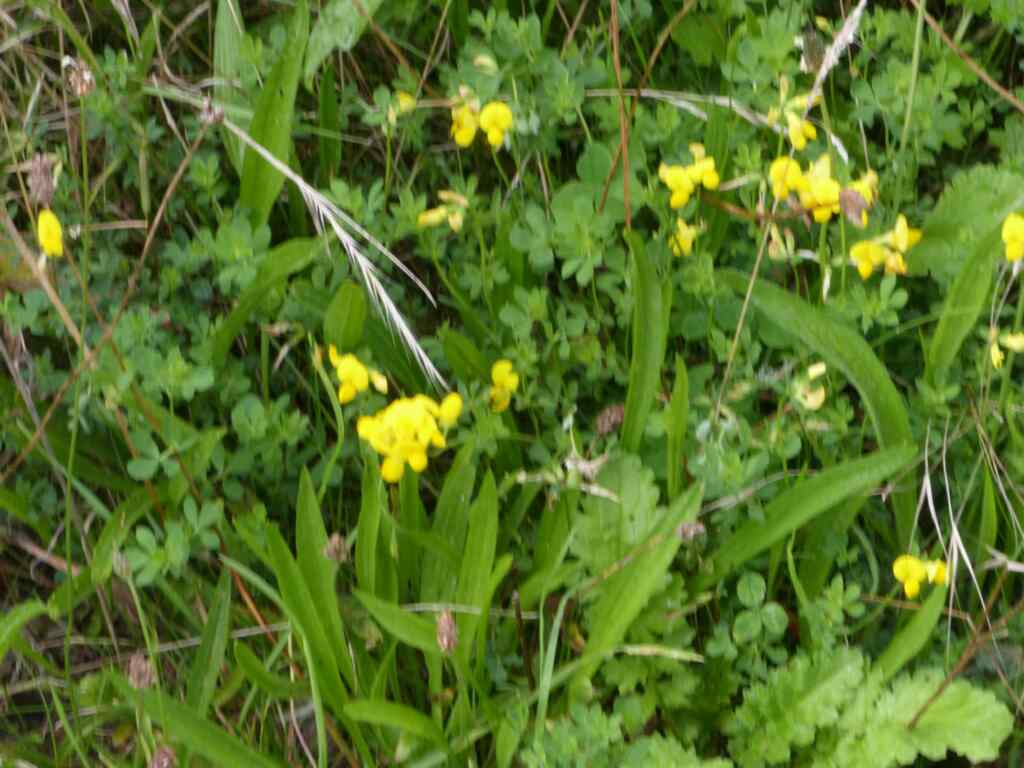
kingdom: Plantae
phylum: Tracheophyta
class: Magnoliopsida
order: Fabales
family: Fabaceae
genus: Lotus
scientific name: Lotus corniculatus
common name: Common bird's-foot-trefoil
